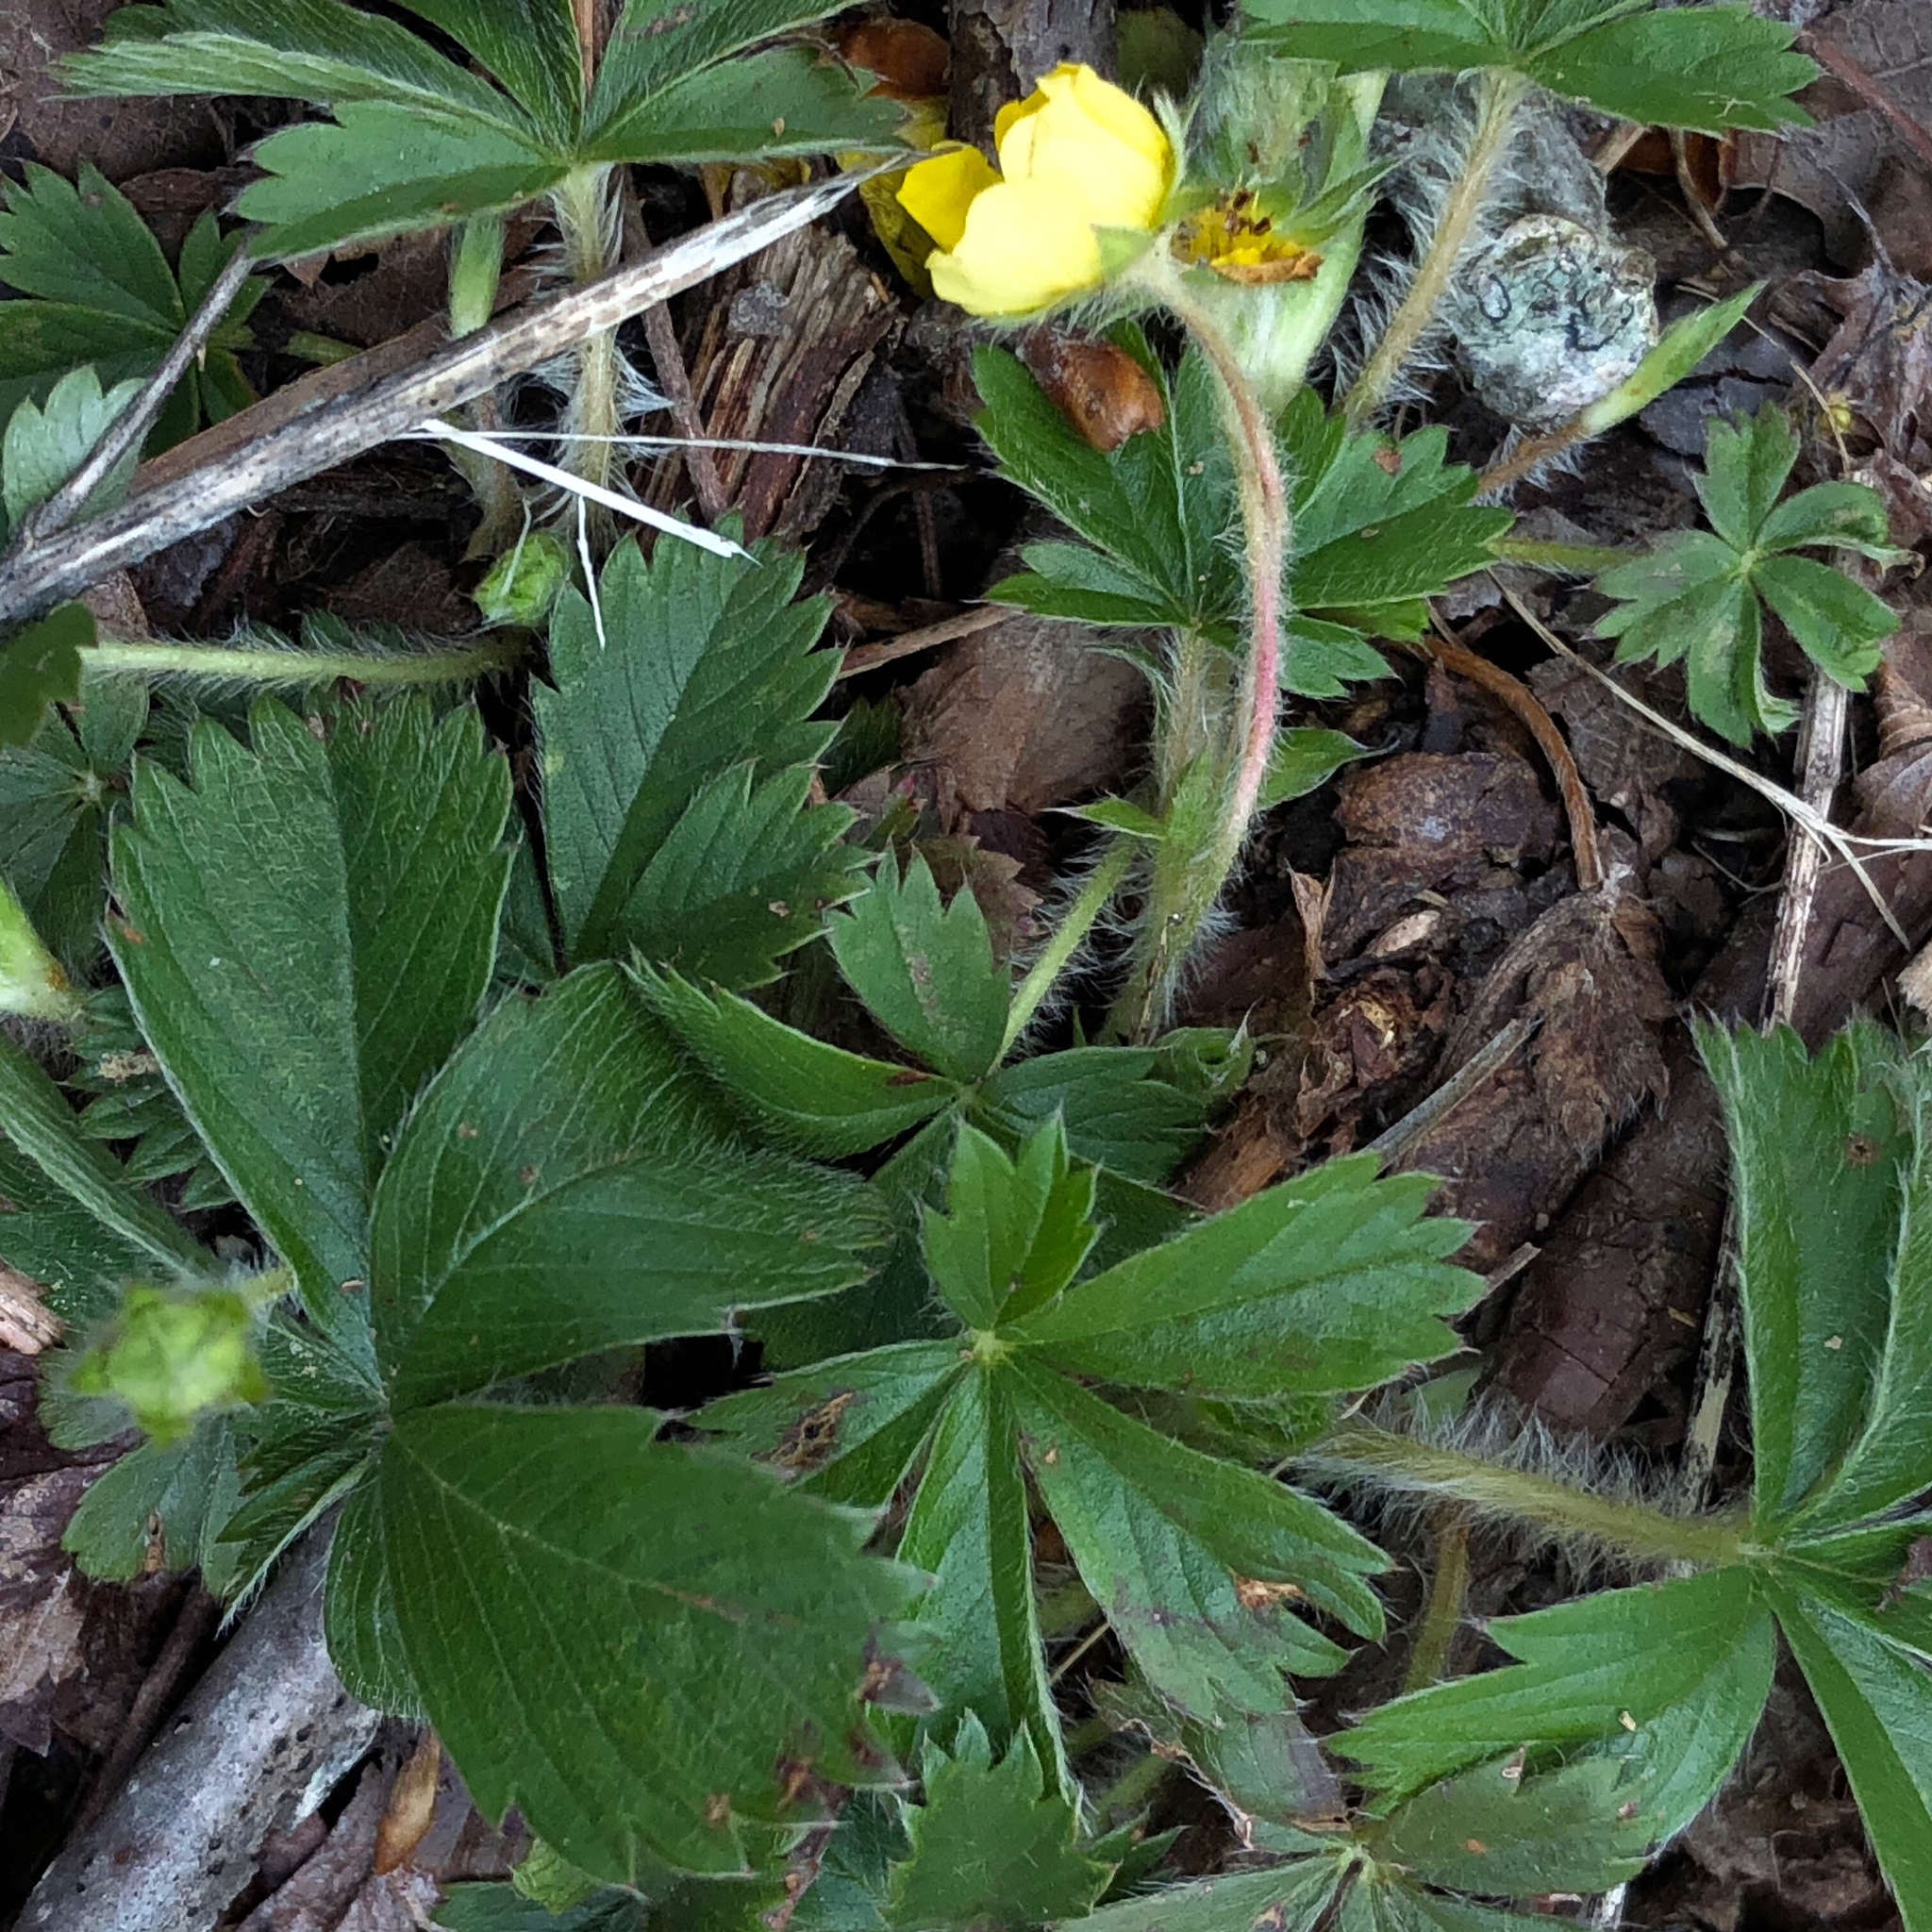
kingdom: Plantae
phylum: Tracheophyta
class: Magnoliopsida
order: Rosales
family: Rosaceae
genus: Potentilla
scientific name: Potentilla canadensis
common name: Canada cinquefoil
